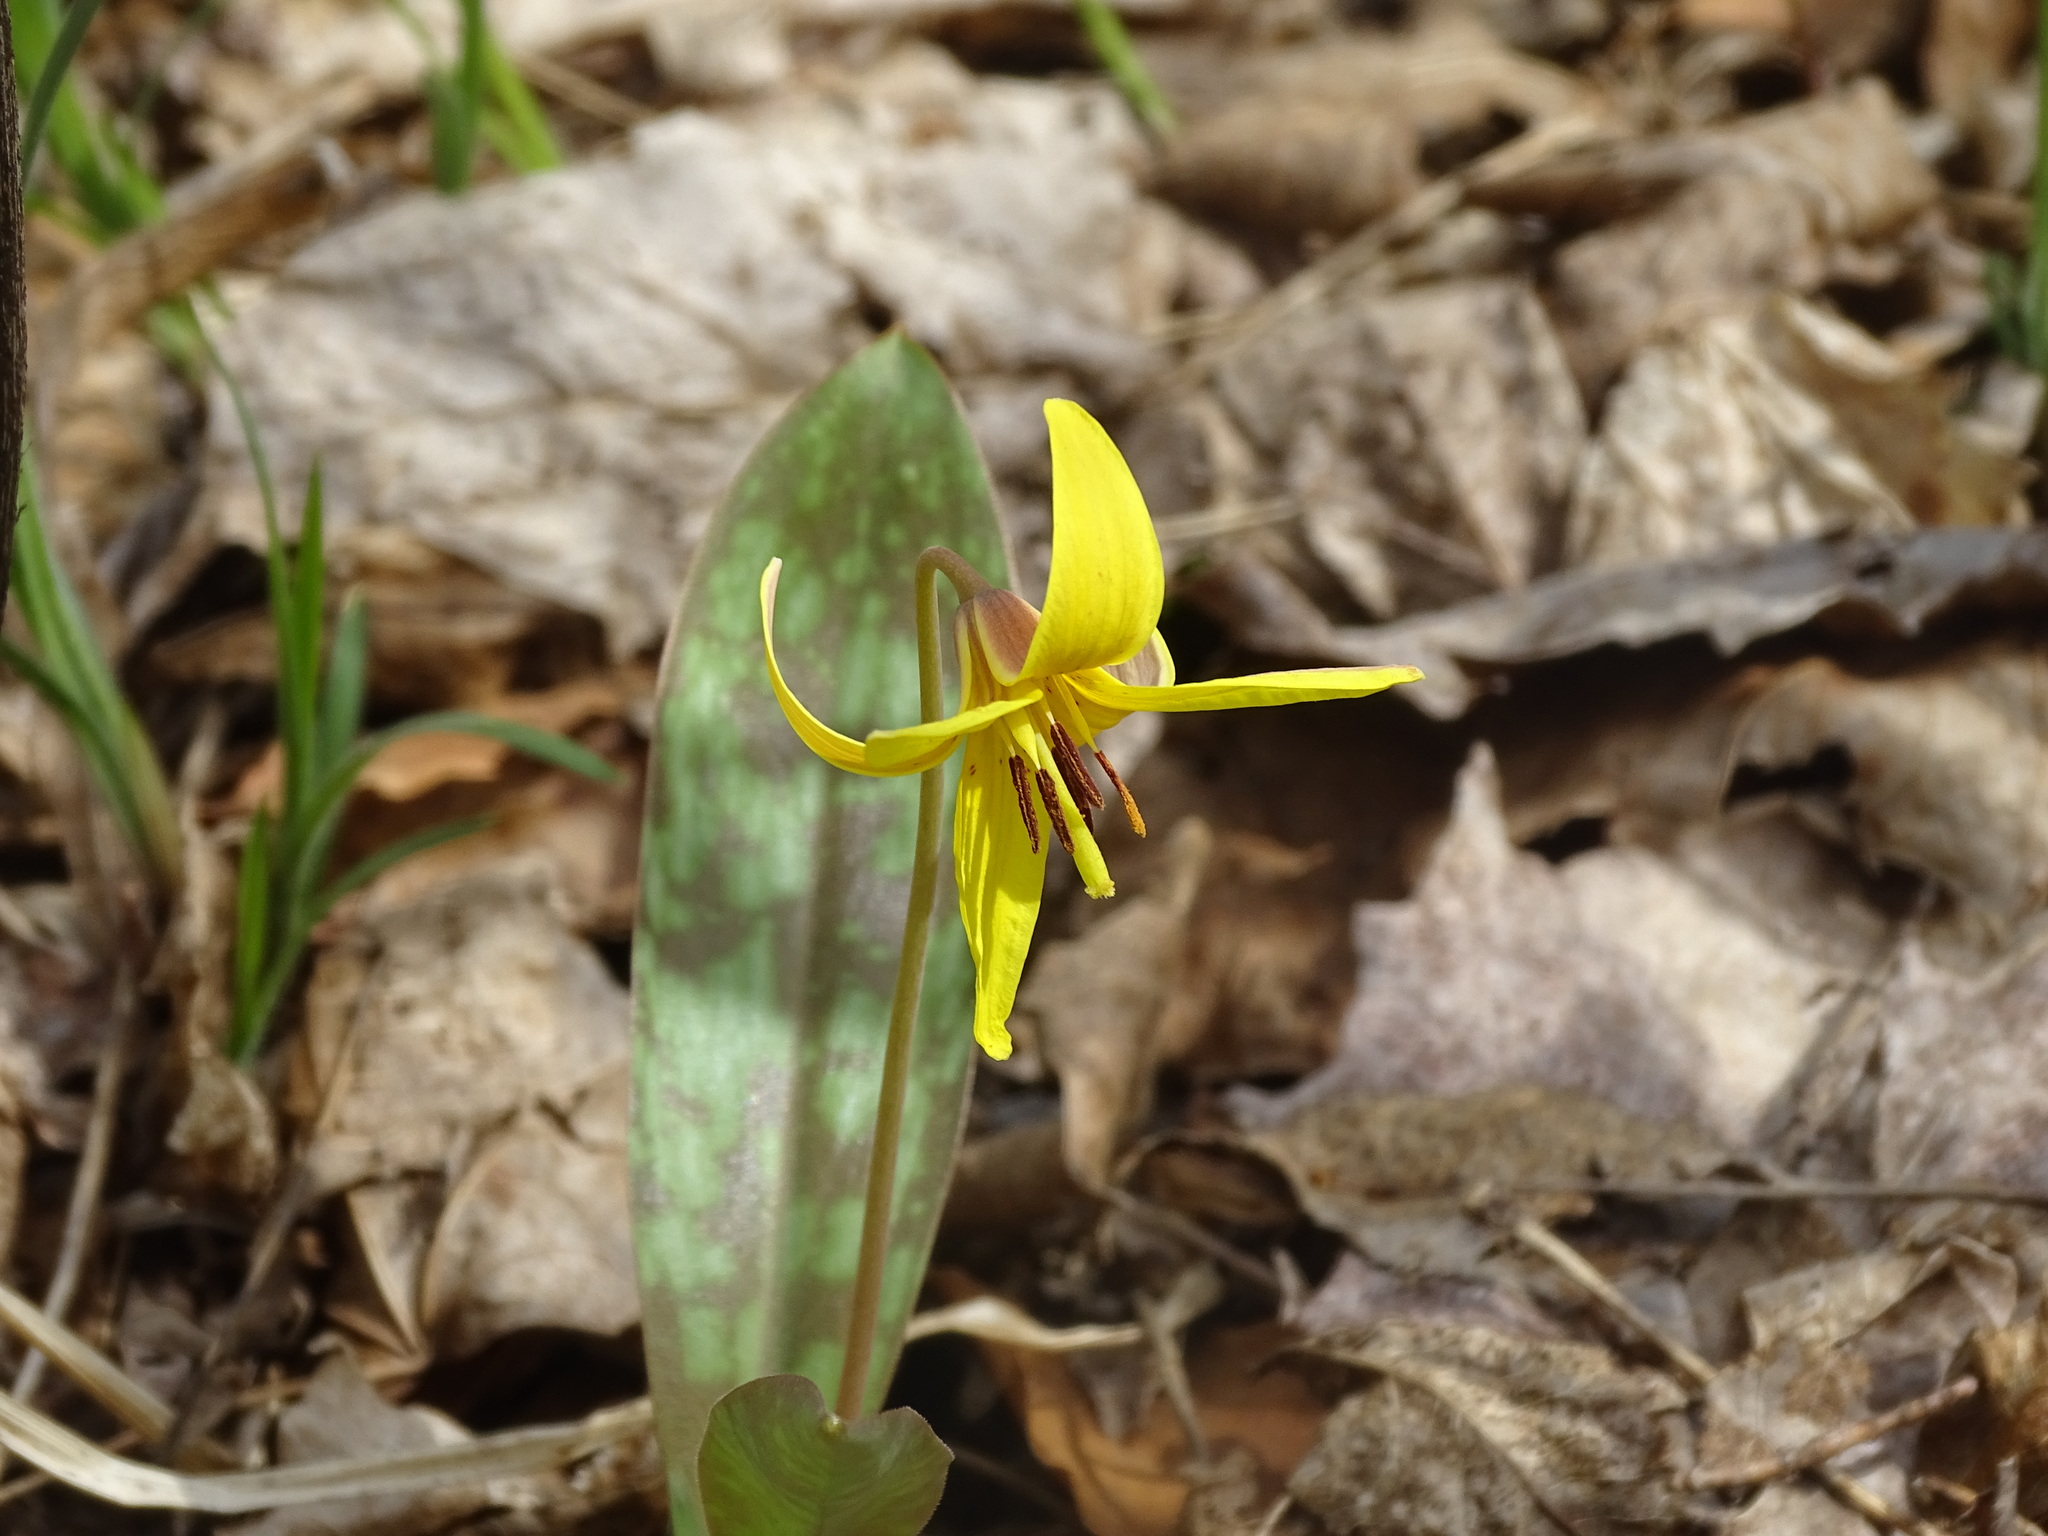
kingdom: Plantae
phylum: Tracheophyta
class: Liliopsida
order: Liliales
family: Liliaceae
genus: Erythronium
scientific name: Erythronium americanum
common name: Yellow adder's-tongue
